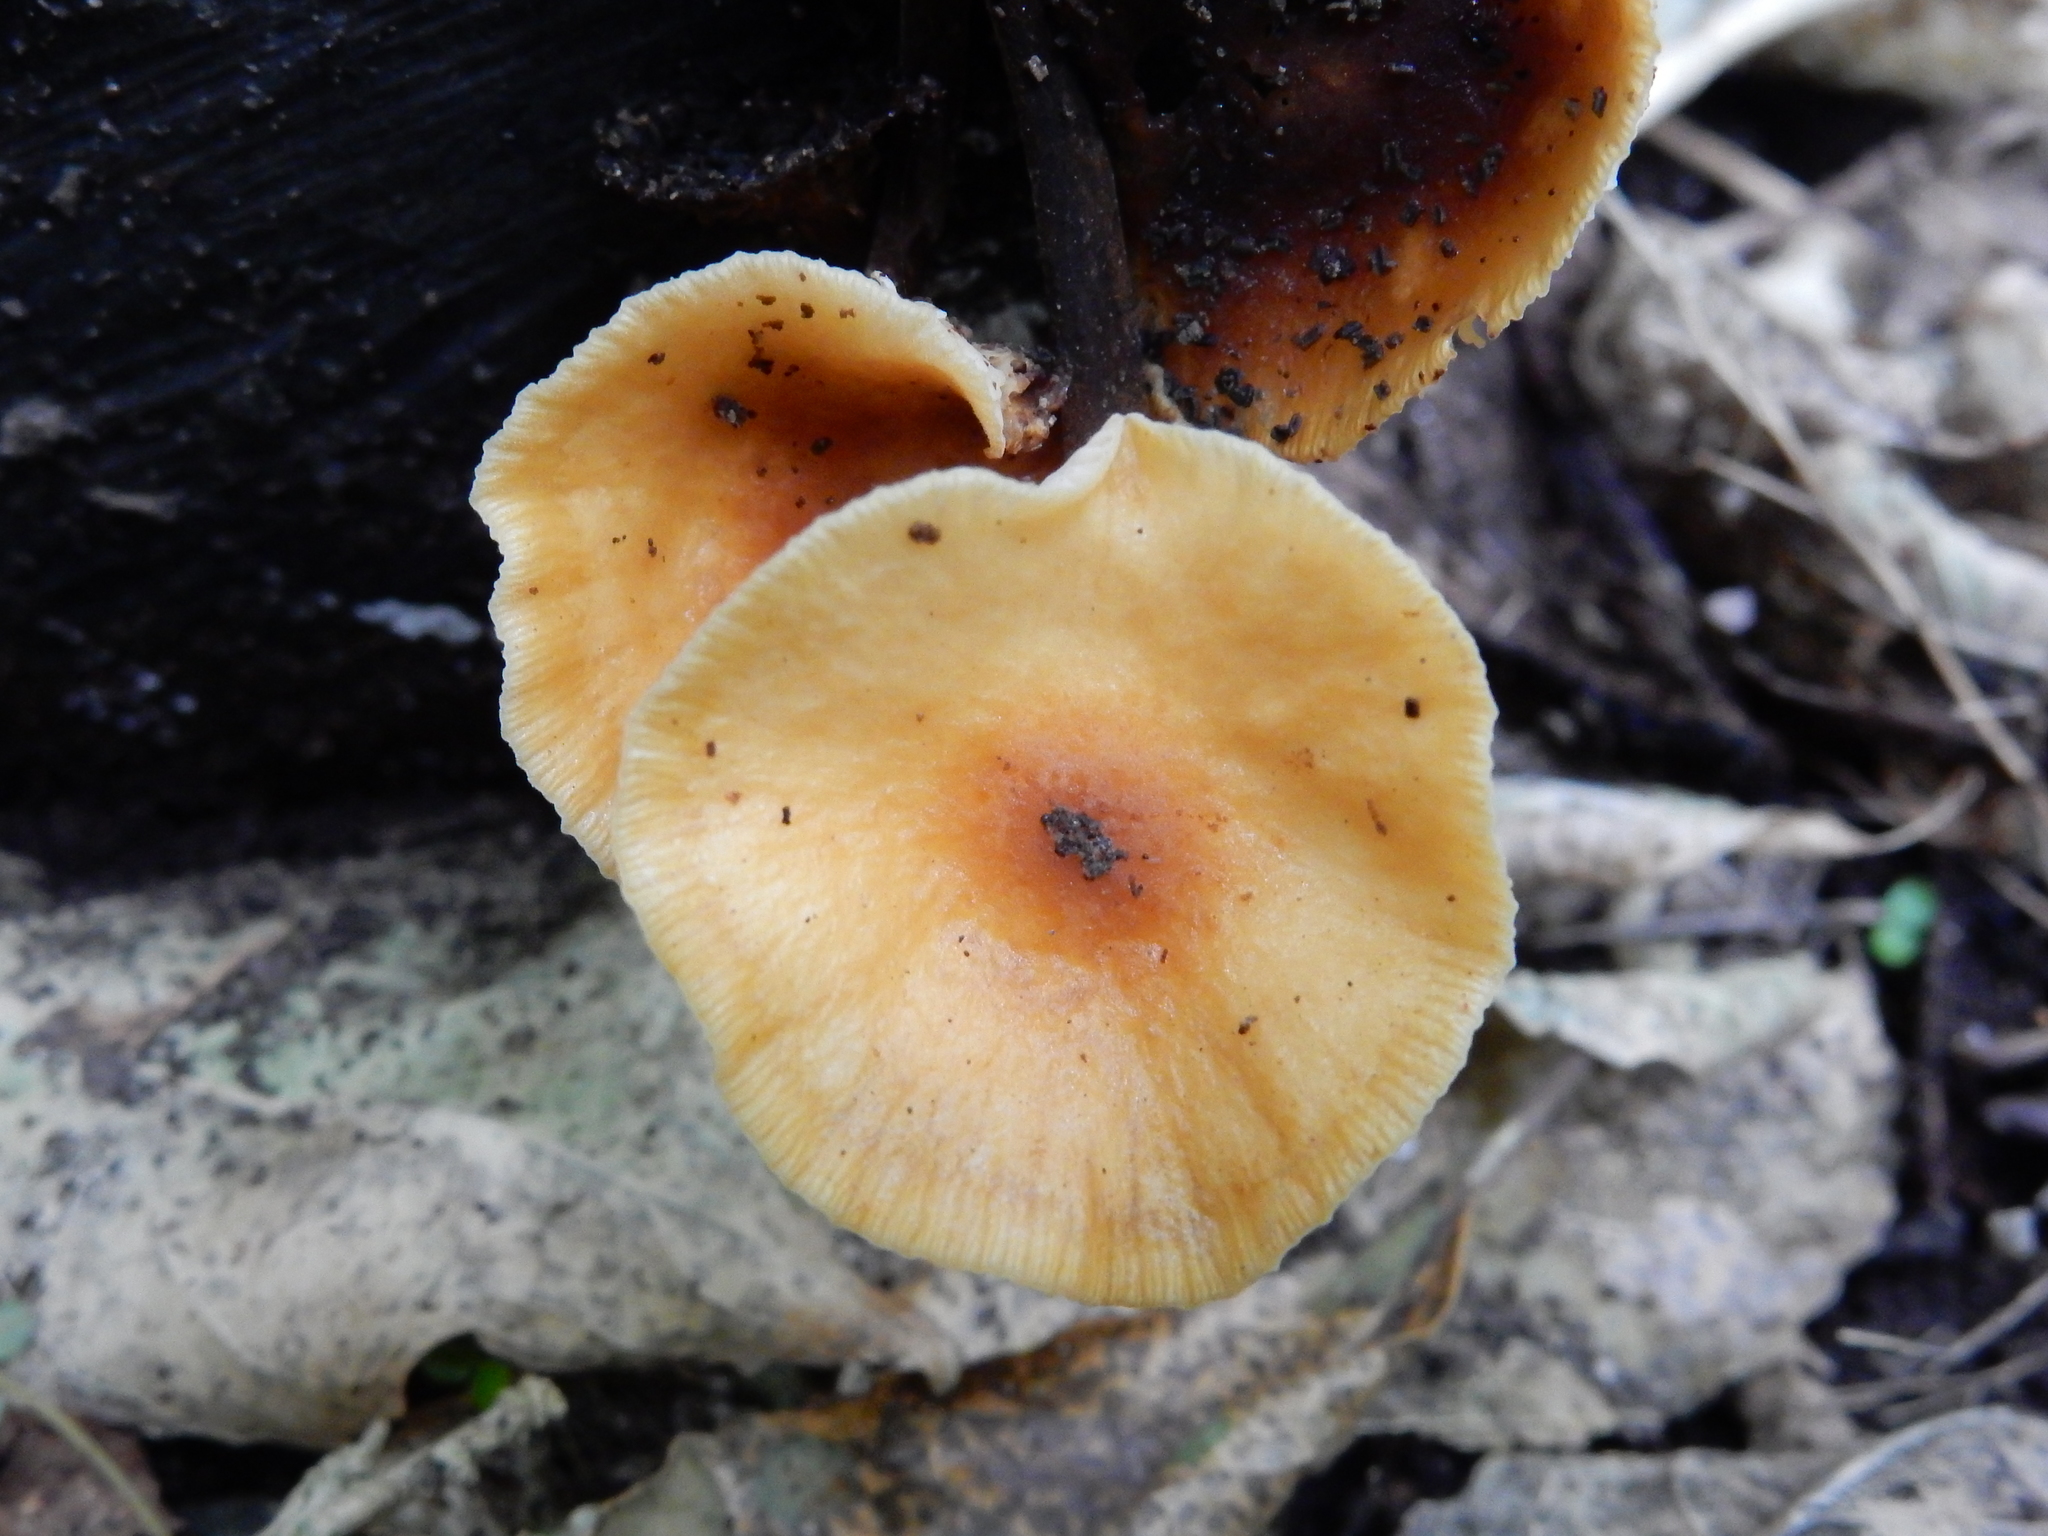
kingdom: Fungi
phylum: Basidiomycota
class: Agaricomycetes
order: Agaricales
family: Physalacriaceae
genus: Flammulina
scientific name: Flammulina velutipes
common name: Velvet shank
